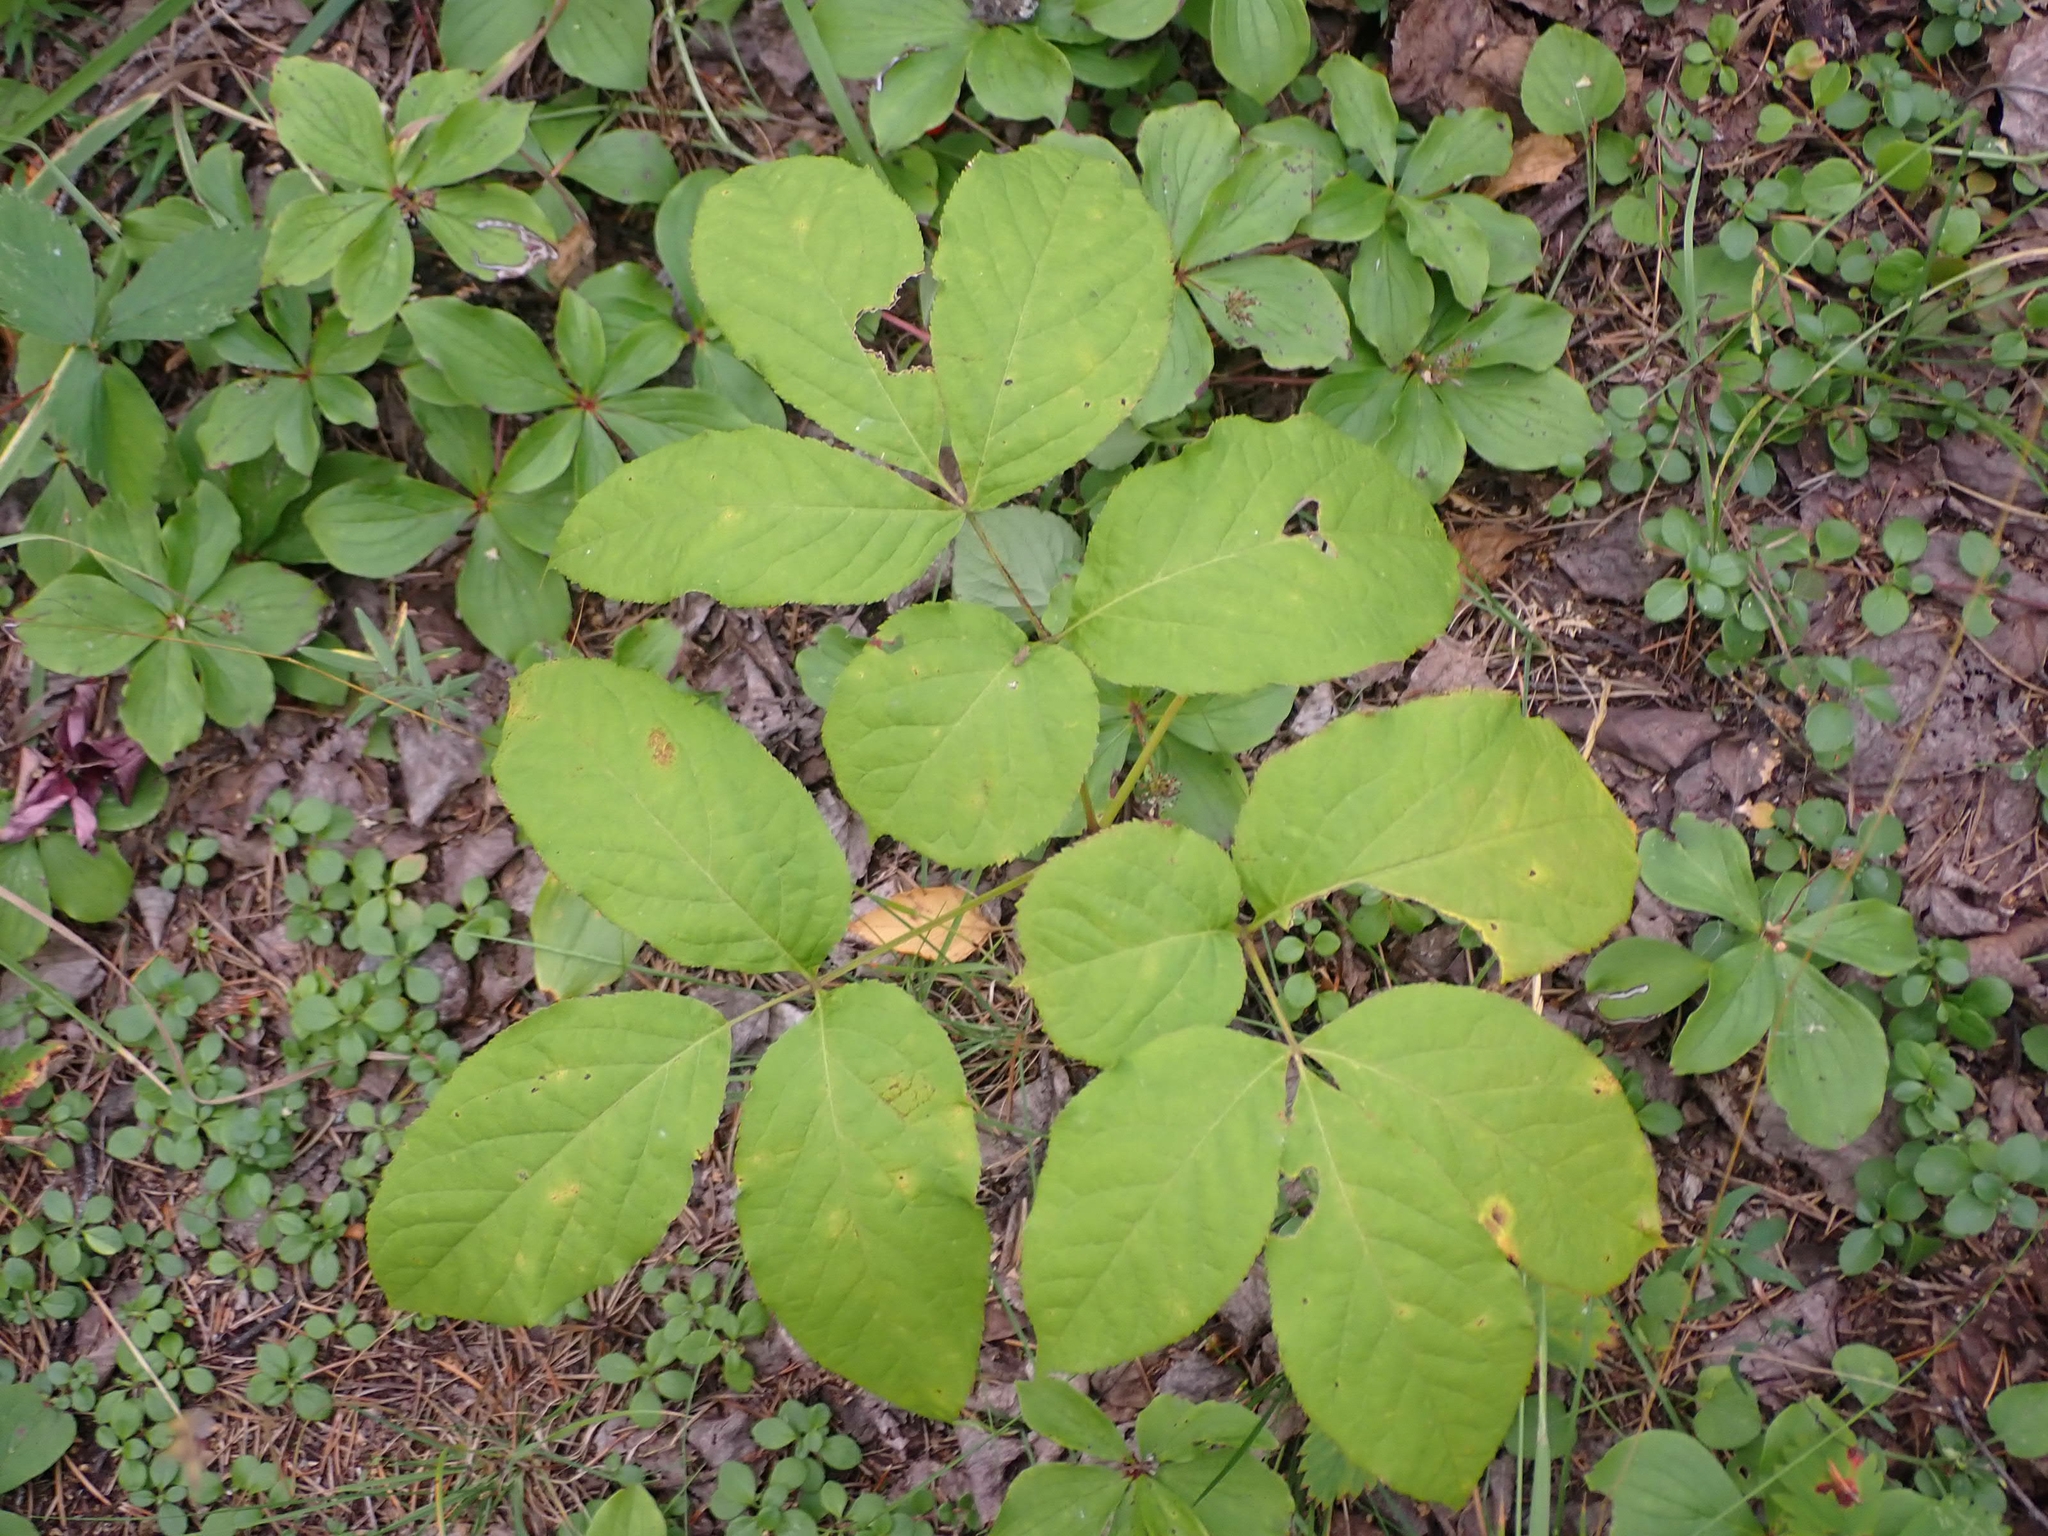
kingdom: Plantae
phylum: Tracheophyta
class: Magnoliopsida
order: Apiales
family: Araliaceae
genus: Aralia
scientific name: Aralia nudicaulis
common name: Wild sarsaparilla
